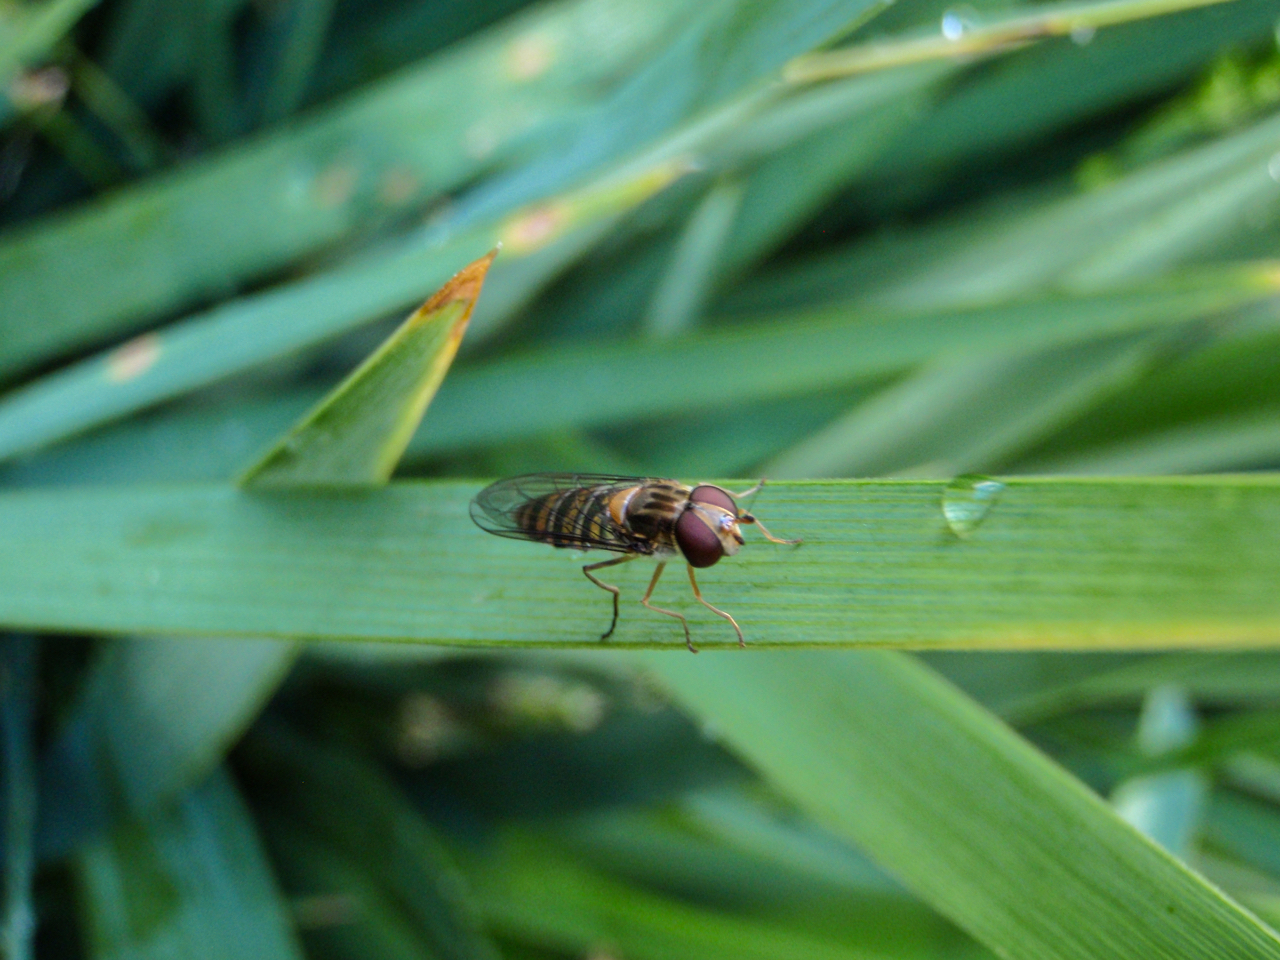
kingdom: Animalia
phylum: Arthropoda
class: Insecta
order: Diptera
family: Syrphidae
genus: Episyrphus
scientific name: Episyrphus balteatus
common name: Marmalade hoverfly
